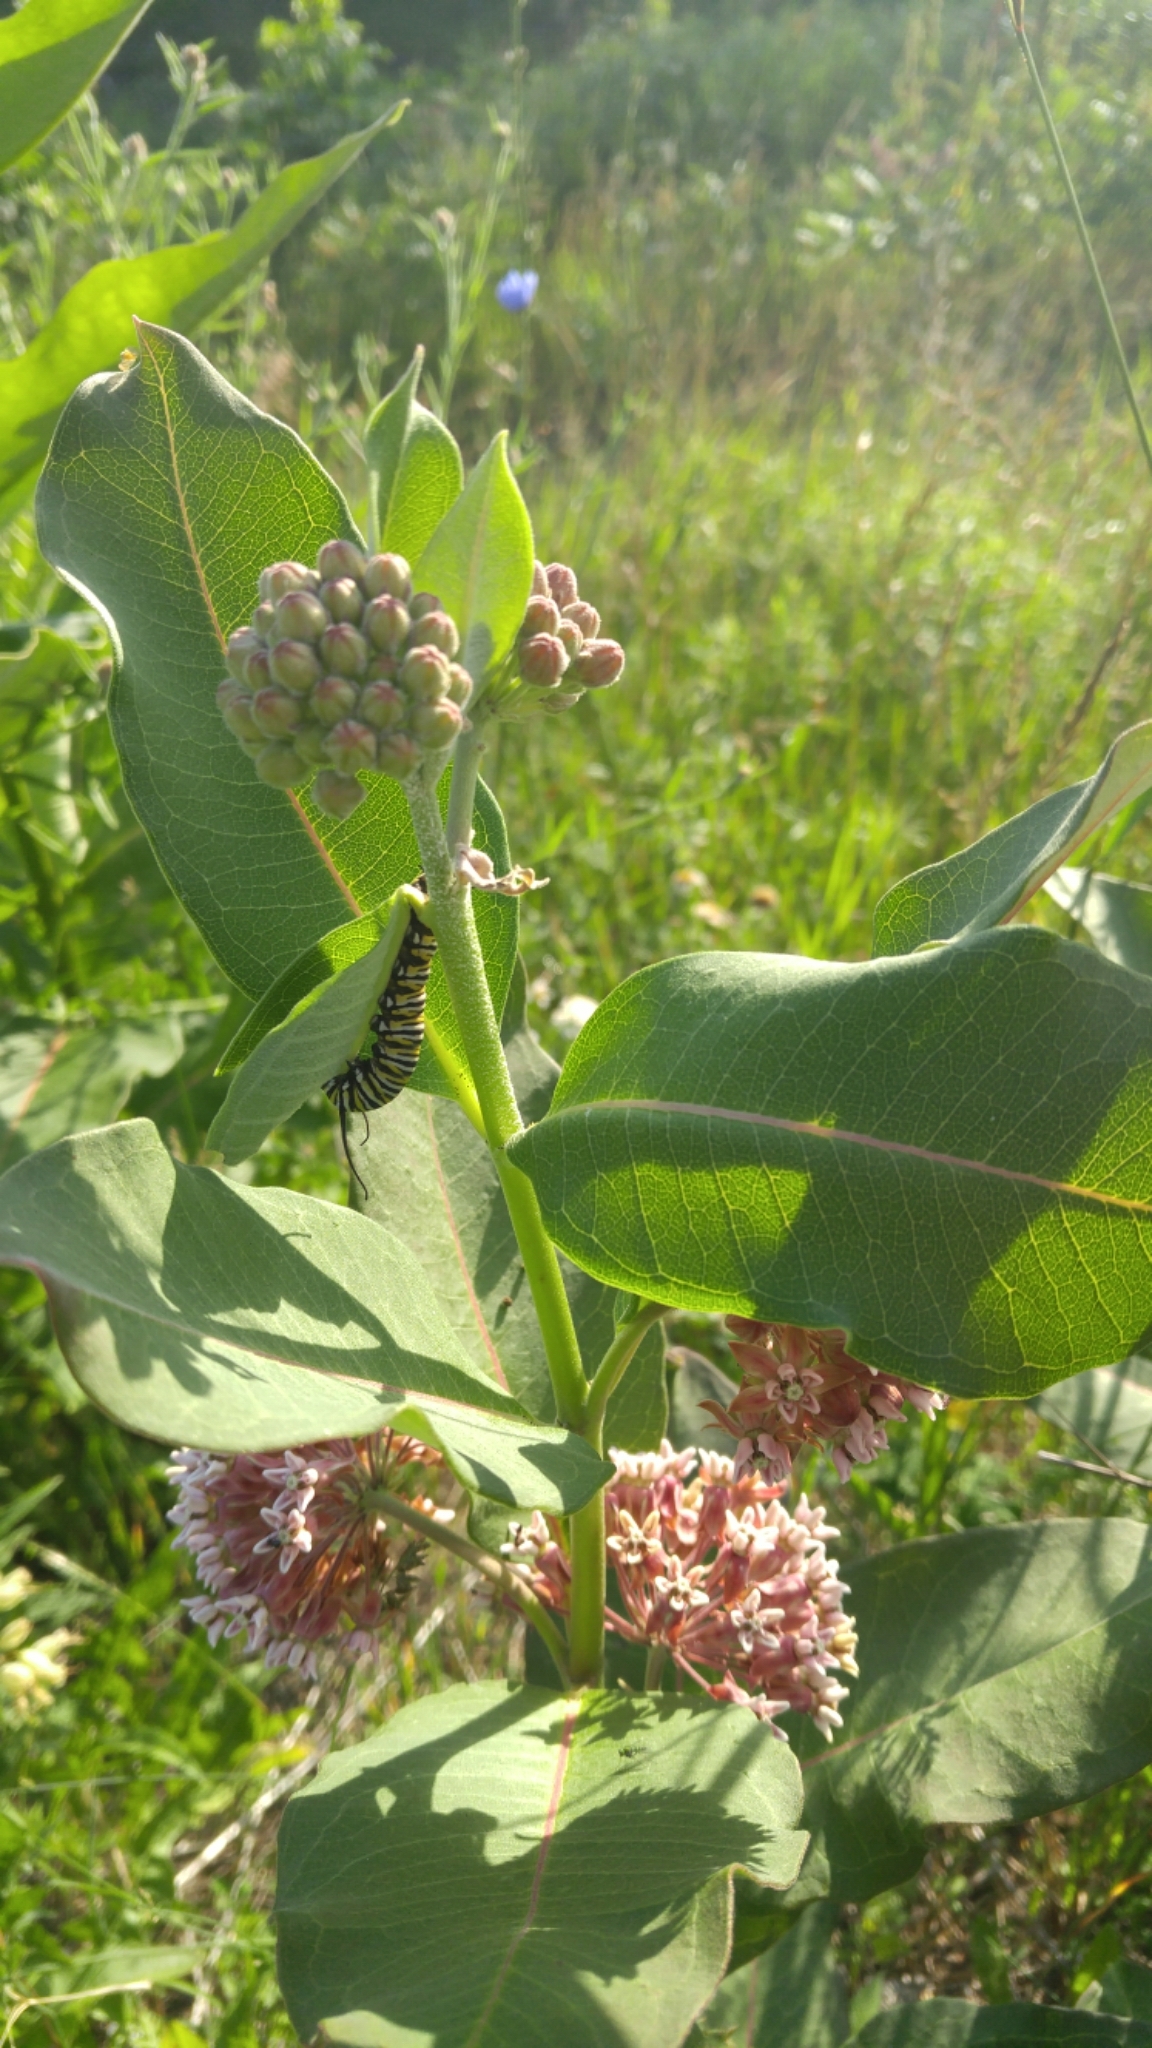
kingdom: Animalia
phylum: Arthropoda
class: Insecta
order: Lepidoptera
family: Nymphalidae
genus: Danaus
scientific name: Danaus plexippus
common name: Monarch
